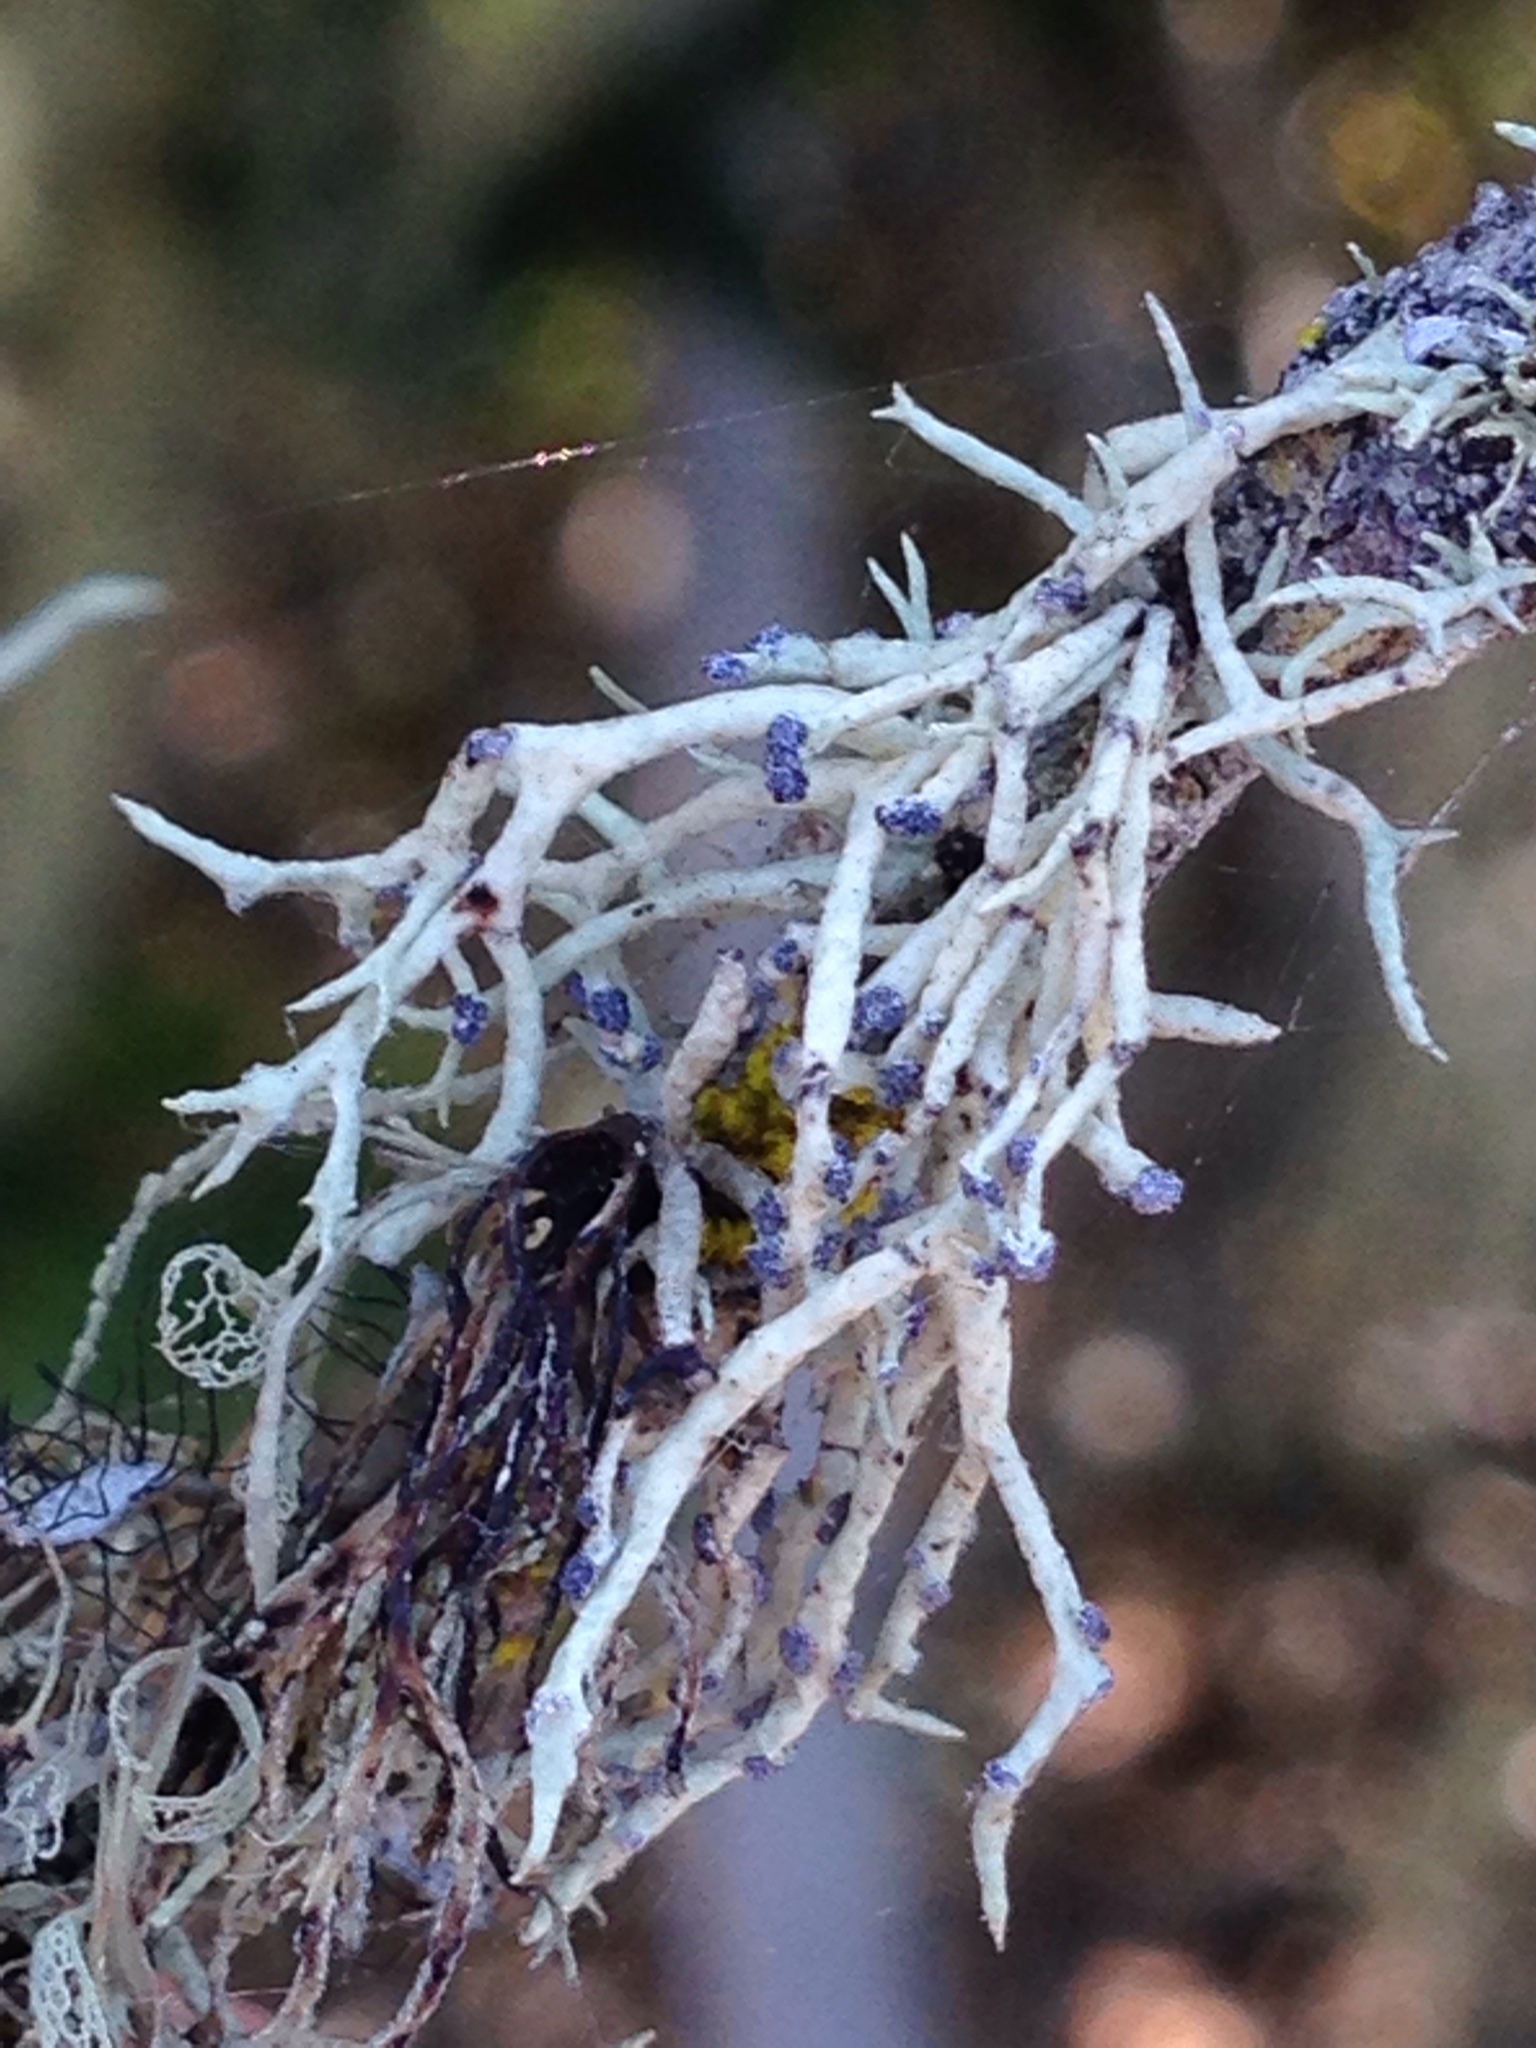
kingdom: Fungi
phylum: Ascomycota
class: Lecanoromycetes
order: Lecanorales
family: Ramalinaceae
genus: Niebla
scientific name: Niebla cephalota
